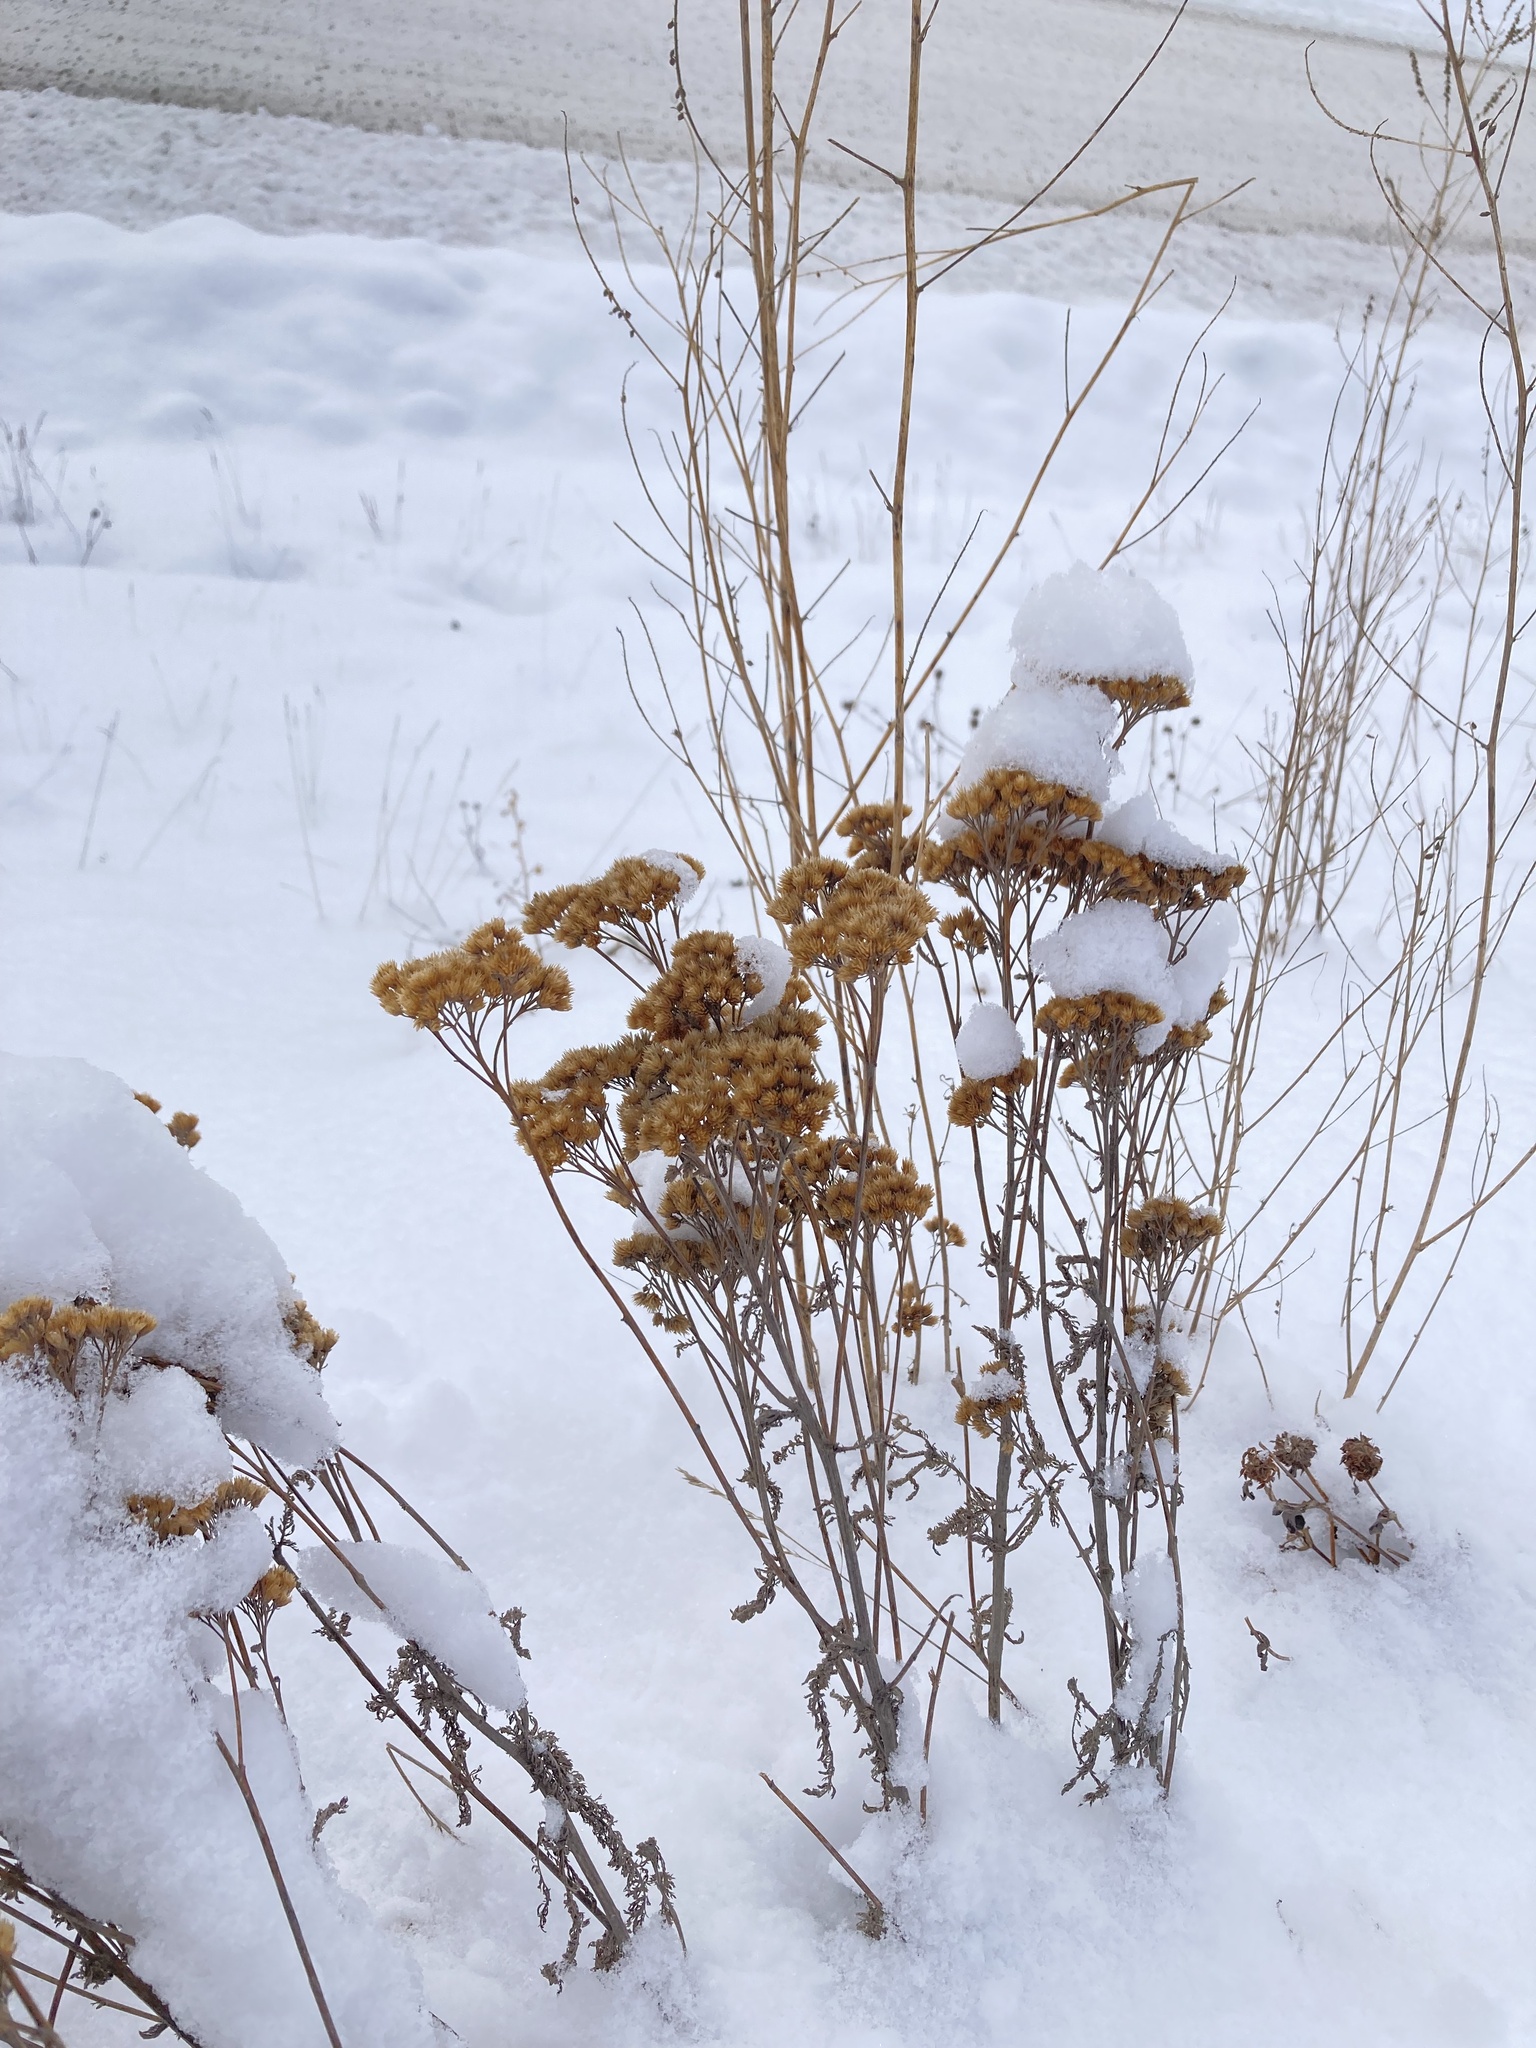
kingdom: Plantae
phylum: Tracheophyta
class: Magnoliopsida
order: Asterales
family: Asteraceae
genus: Achillea
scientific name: Achillea millefolium
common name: Yarrow
